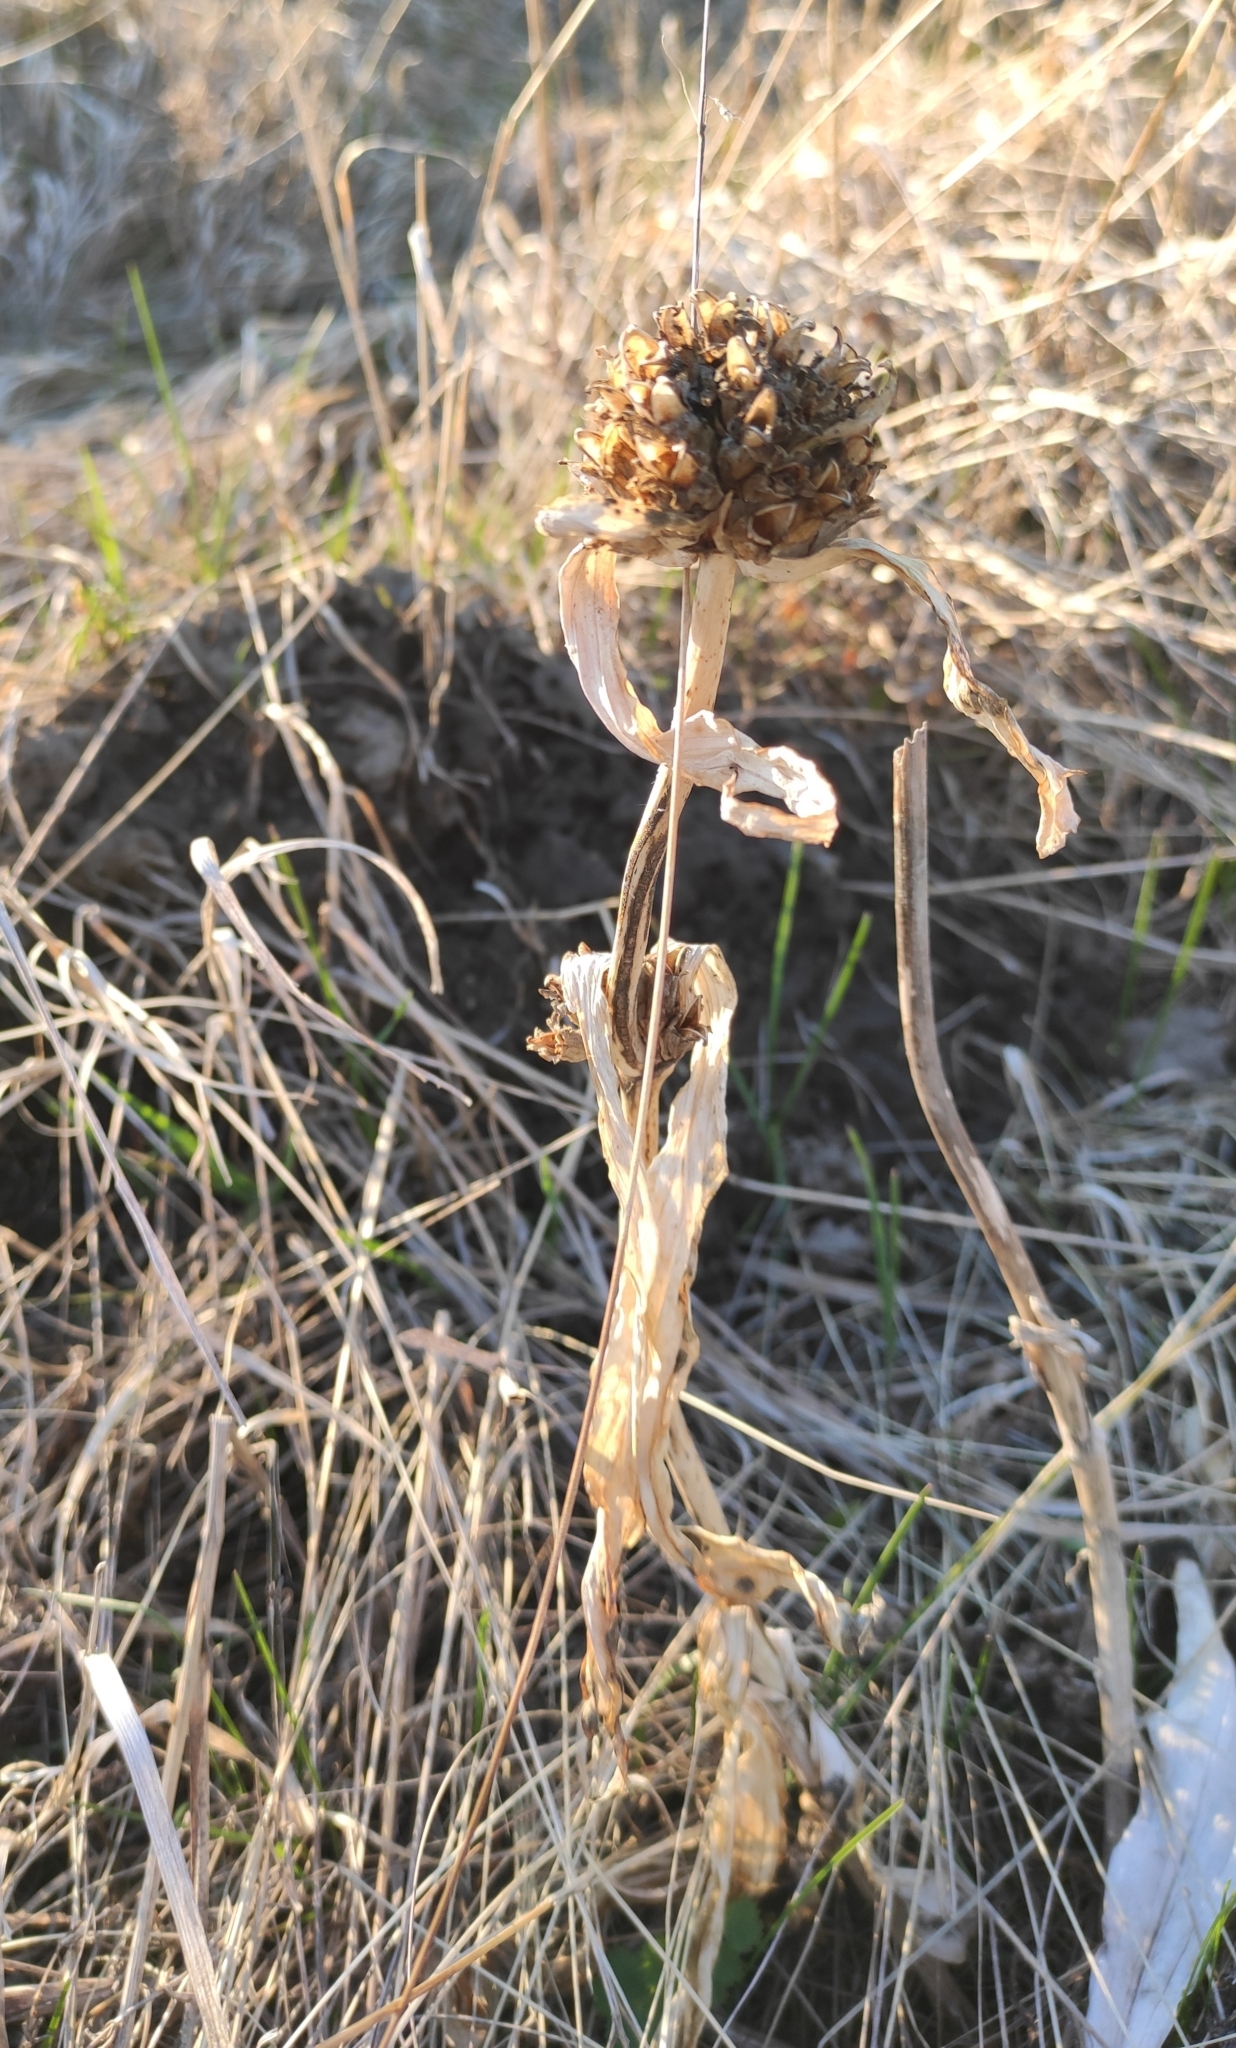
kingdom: Plantae
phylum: Tracheophyta
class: Magnoliopsida
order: Gentianales
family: Gentianaceae
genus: Gentiana
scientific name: Gentiana macrophylla
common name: Large-leaf gentian
